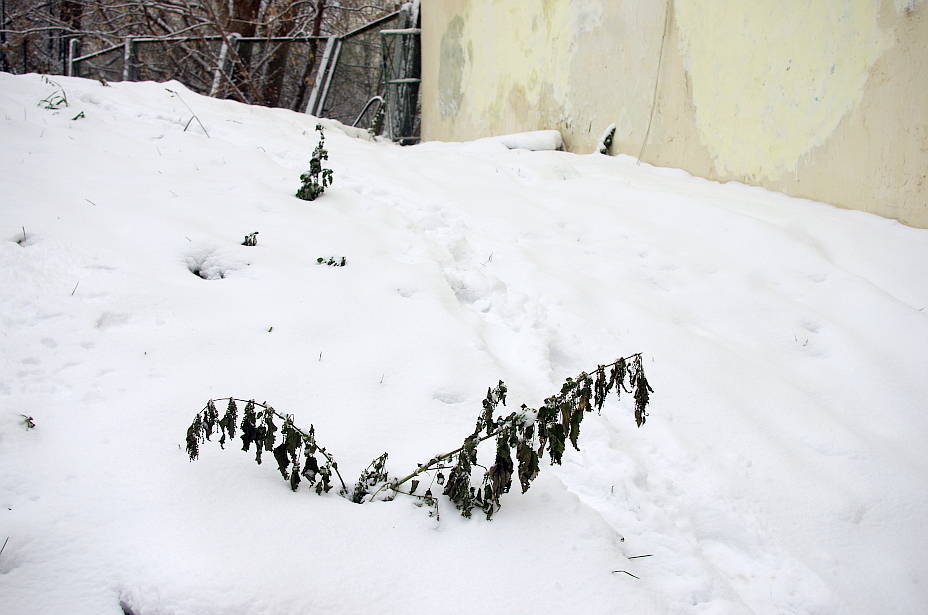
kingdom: Plantae
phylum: Tracheophyta
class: Magnoliopsida
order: Rosales
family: Urticaceae
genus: Urtica
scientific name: Urtica dioica
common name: Common nettle
